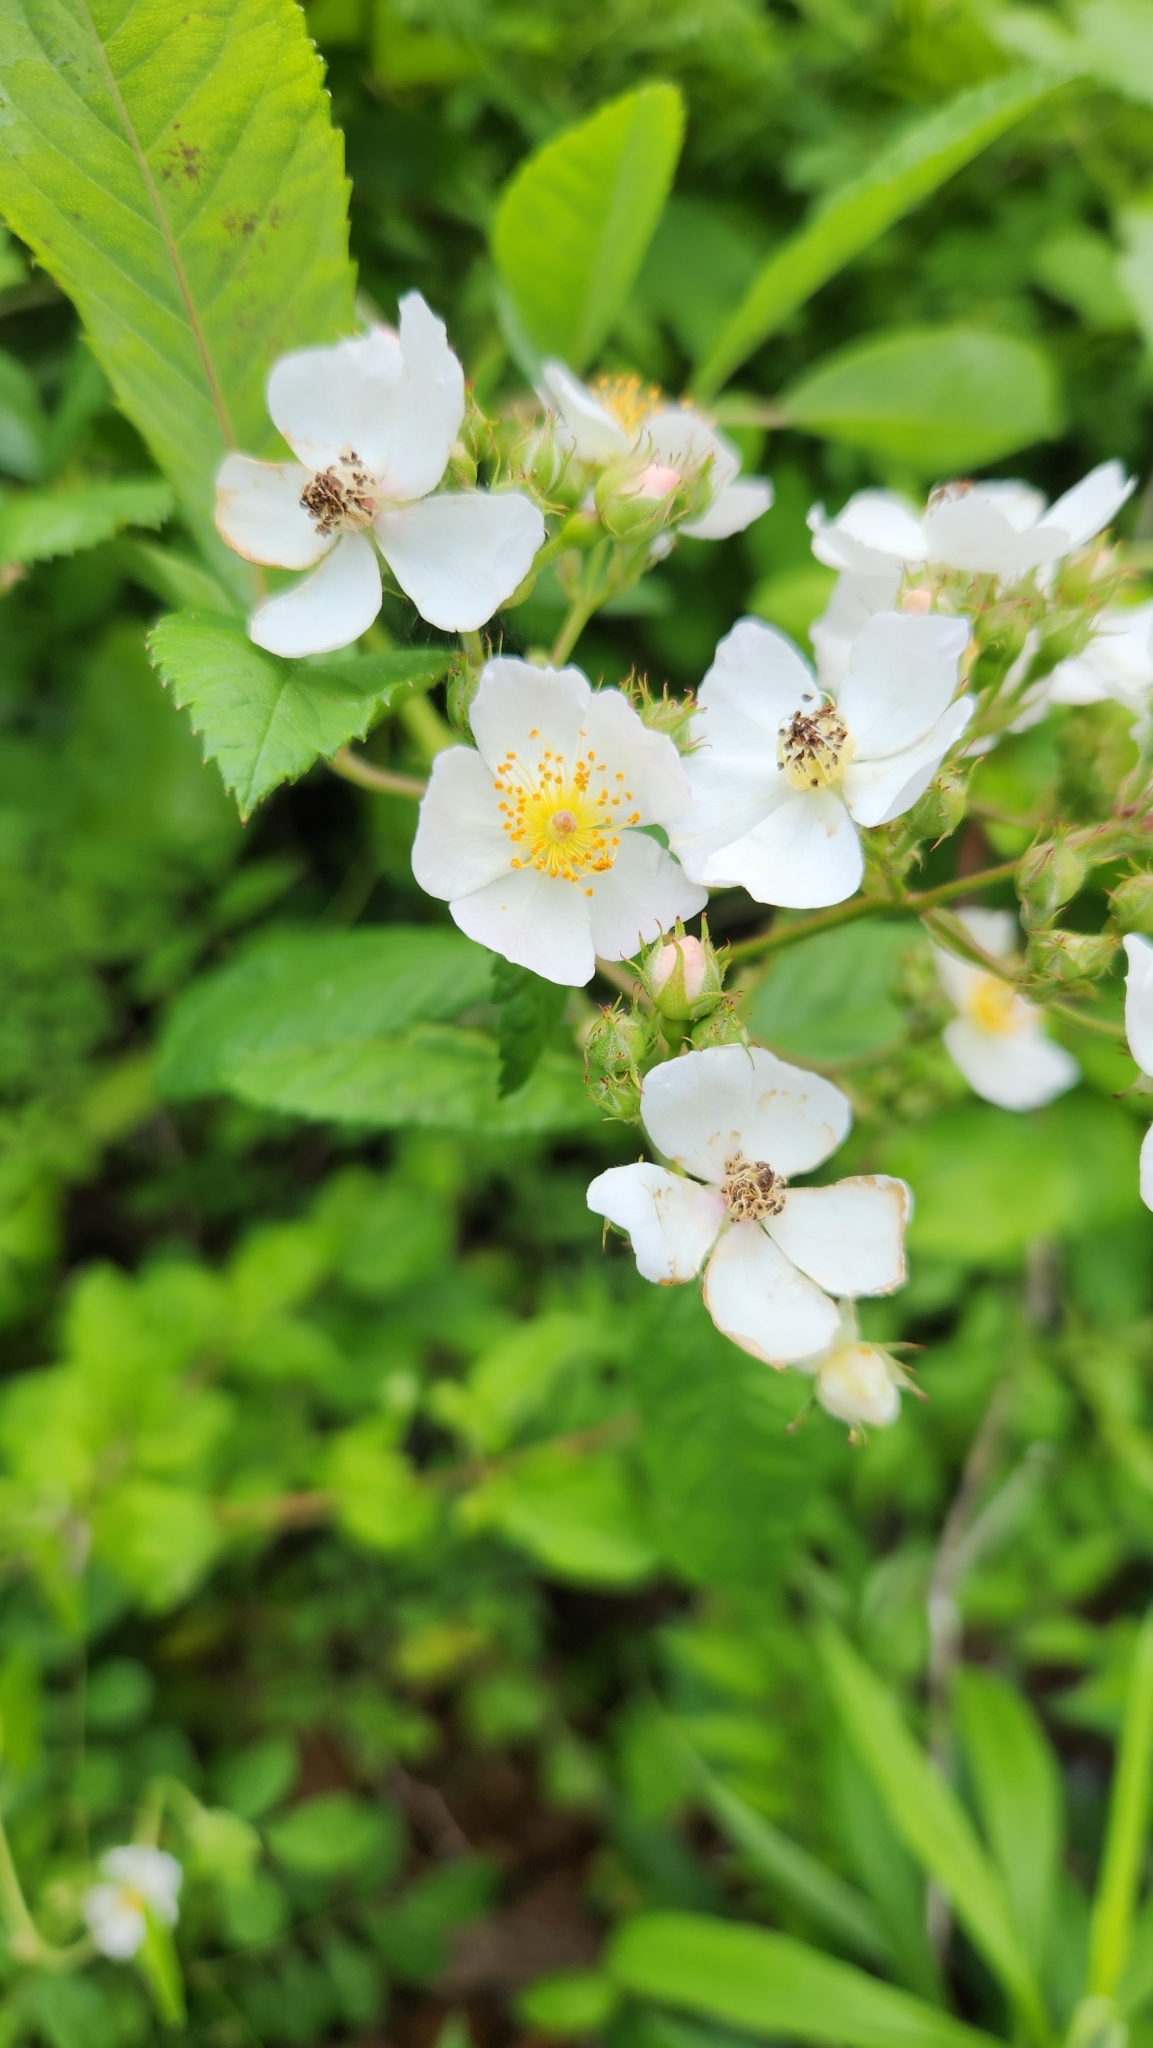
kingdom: Plantae
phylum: Tracheophyta
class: Magnoliopsida
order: Rosales
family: Rosaceae
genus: Rosa
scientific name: Rosa multiflora
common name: Multiflora rose
